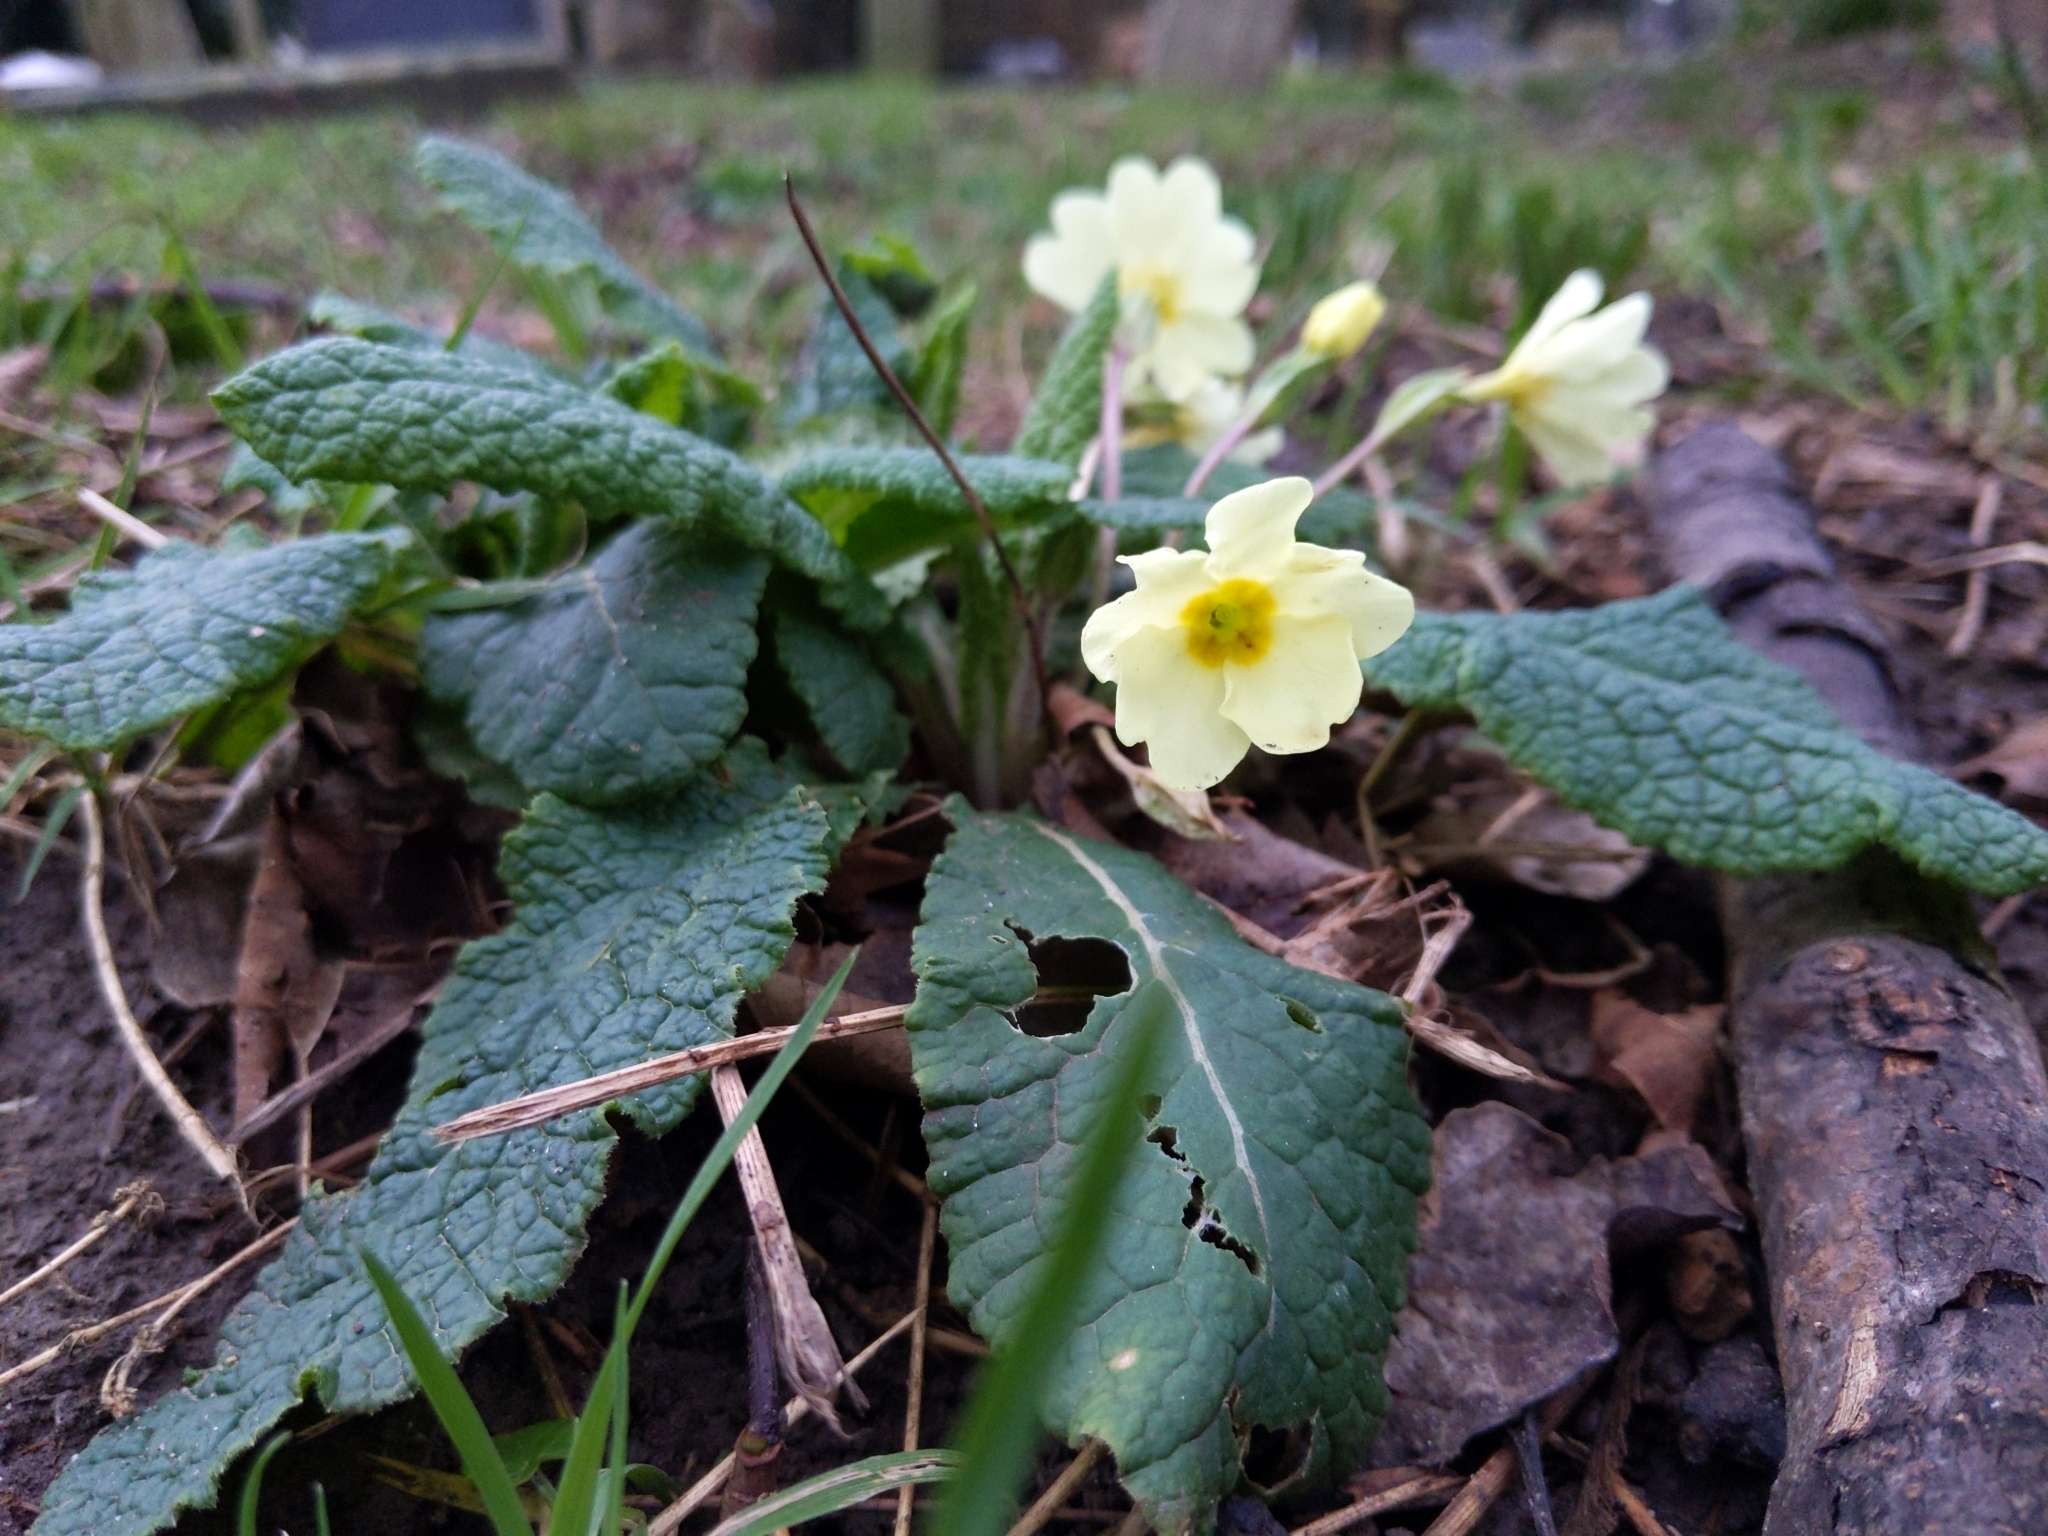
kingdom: Plantae
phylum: Tracheophyta
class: Magnoliopsida
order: Ericales
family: Primulaceae
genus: Primula
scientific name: Primula vulgaris
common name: Primrose
